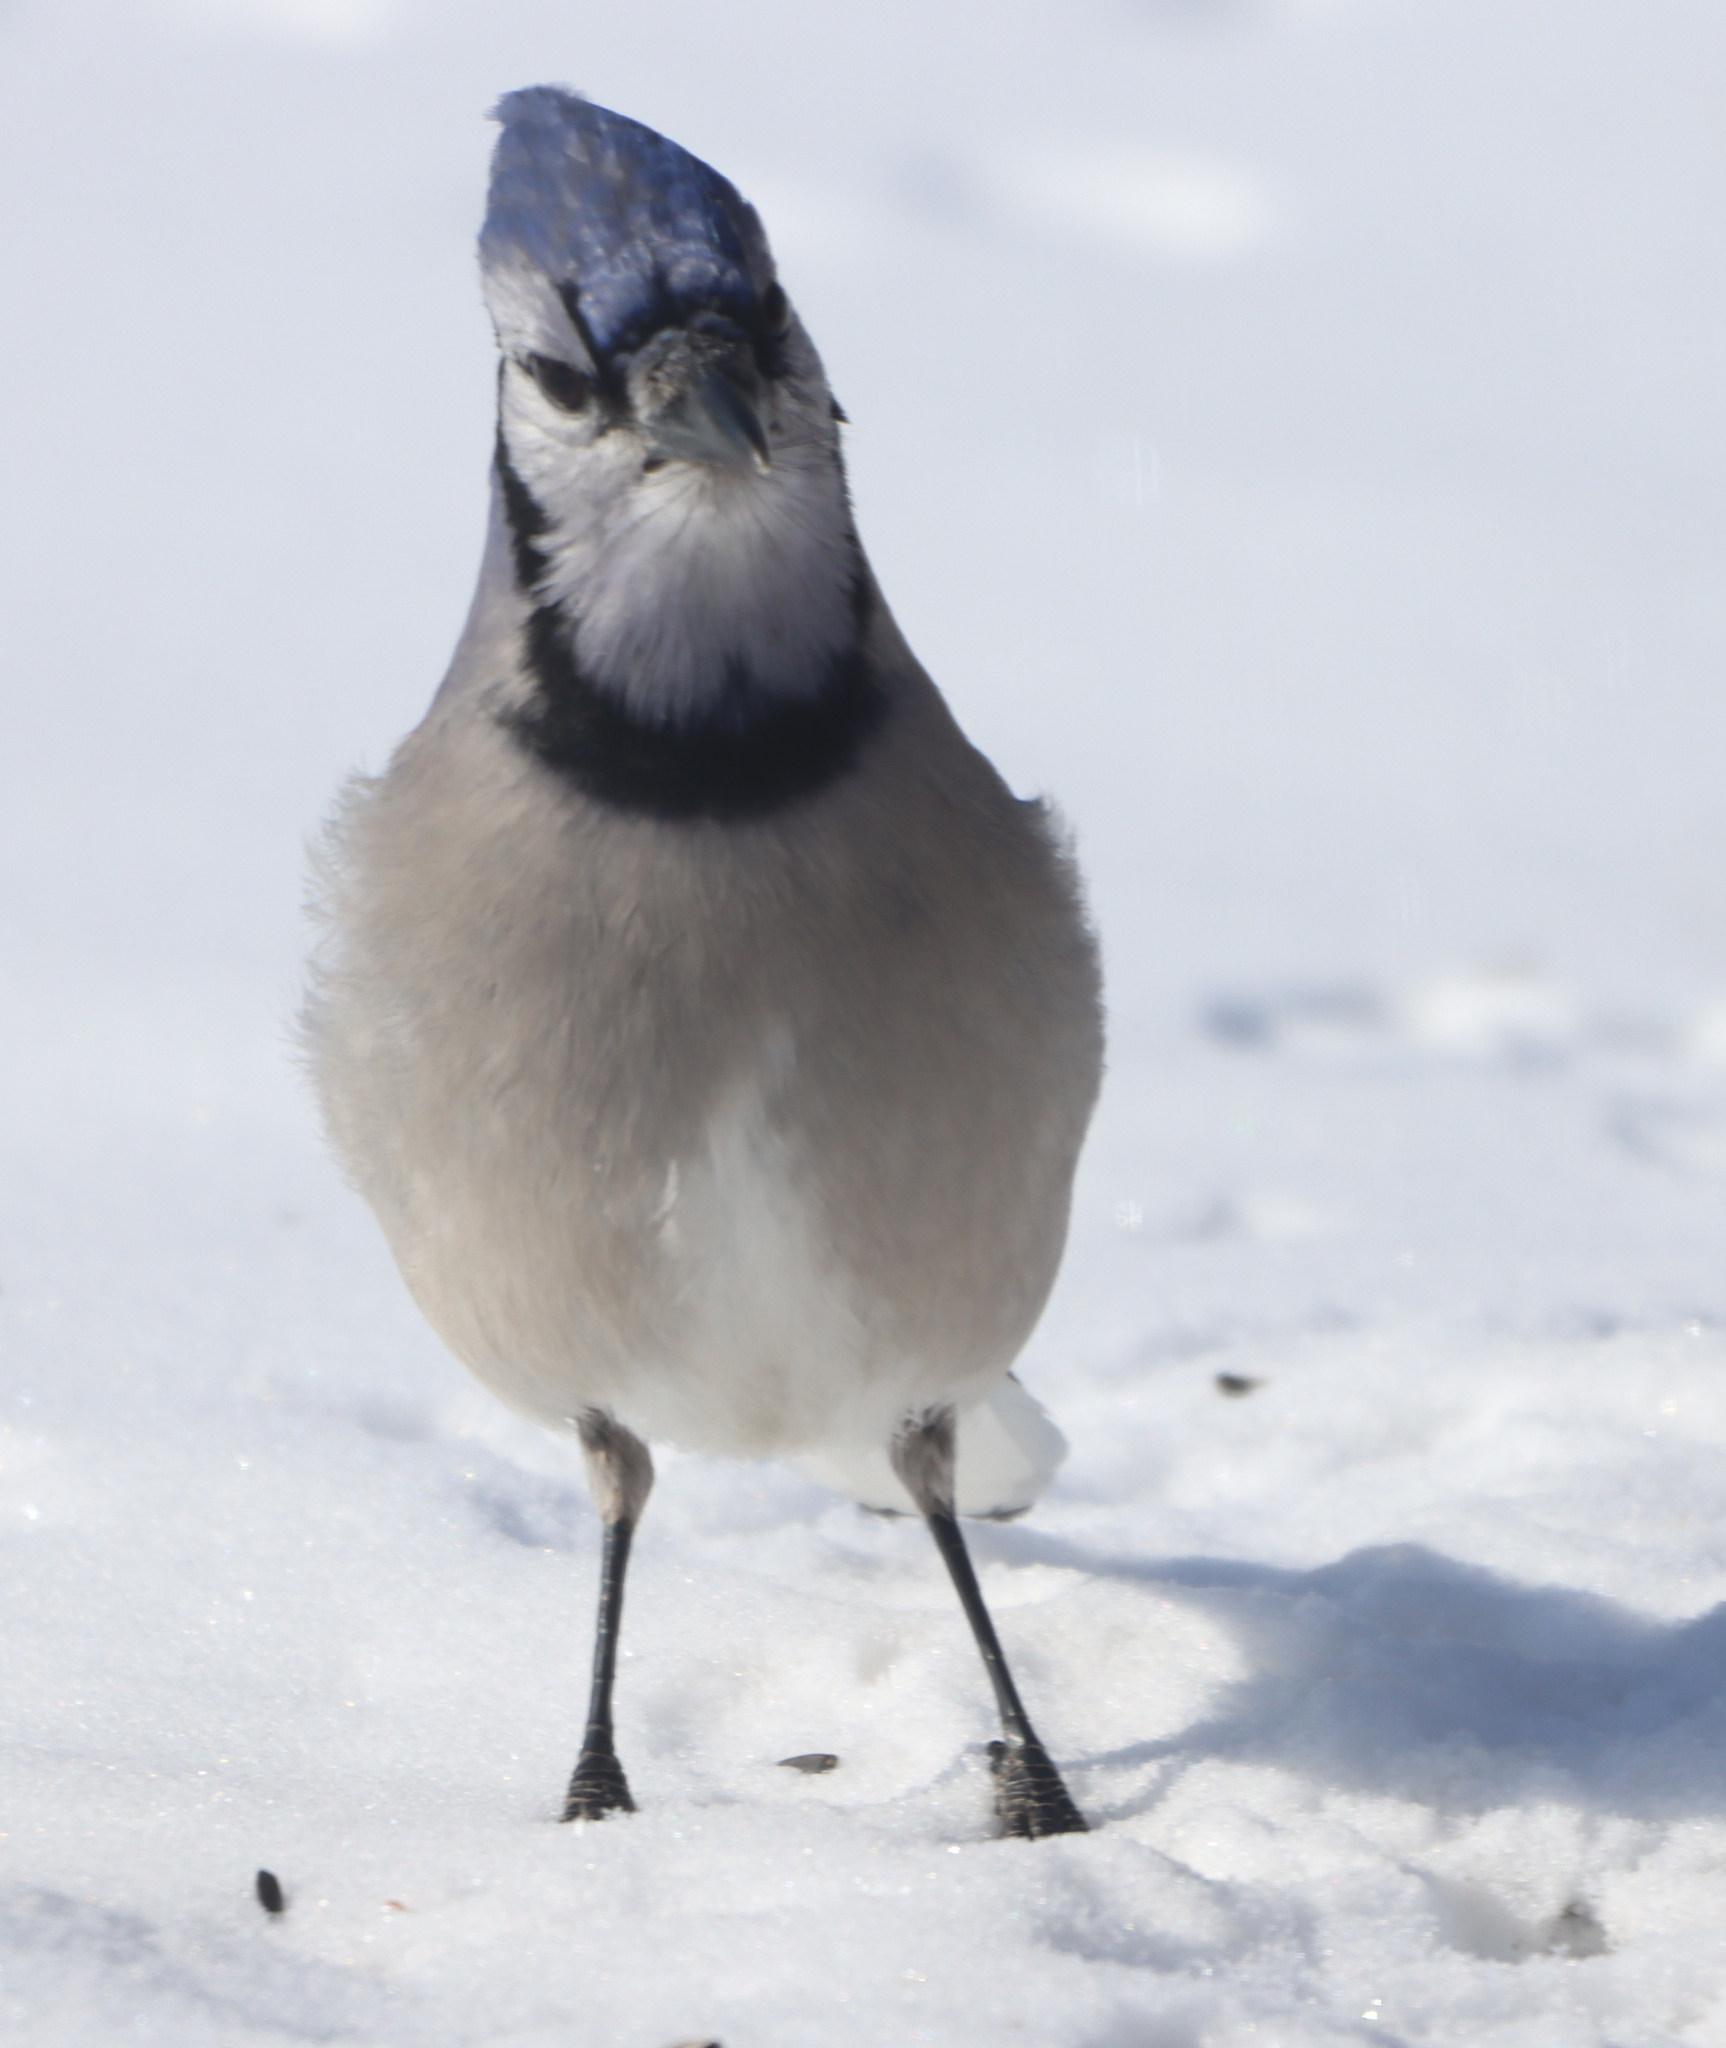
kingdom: Animalia
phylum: Chordata
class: Aves
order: Passeriformes
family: Corvidae
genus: Cyanocitta
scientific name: Cyanocitta cristata
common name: Blue jay
